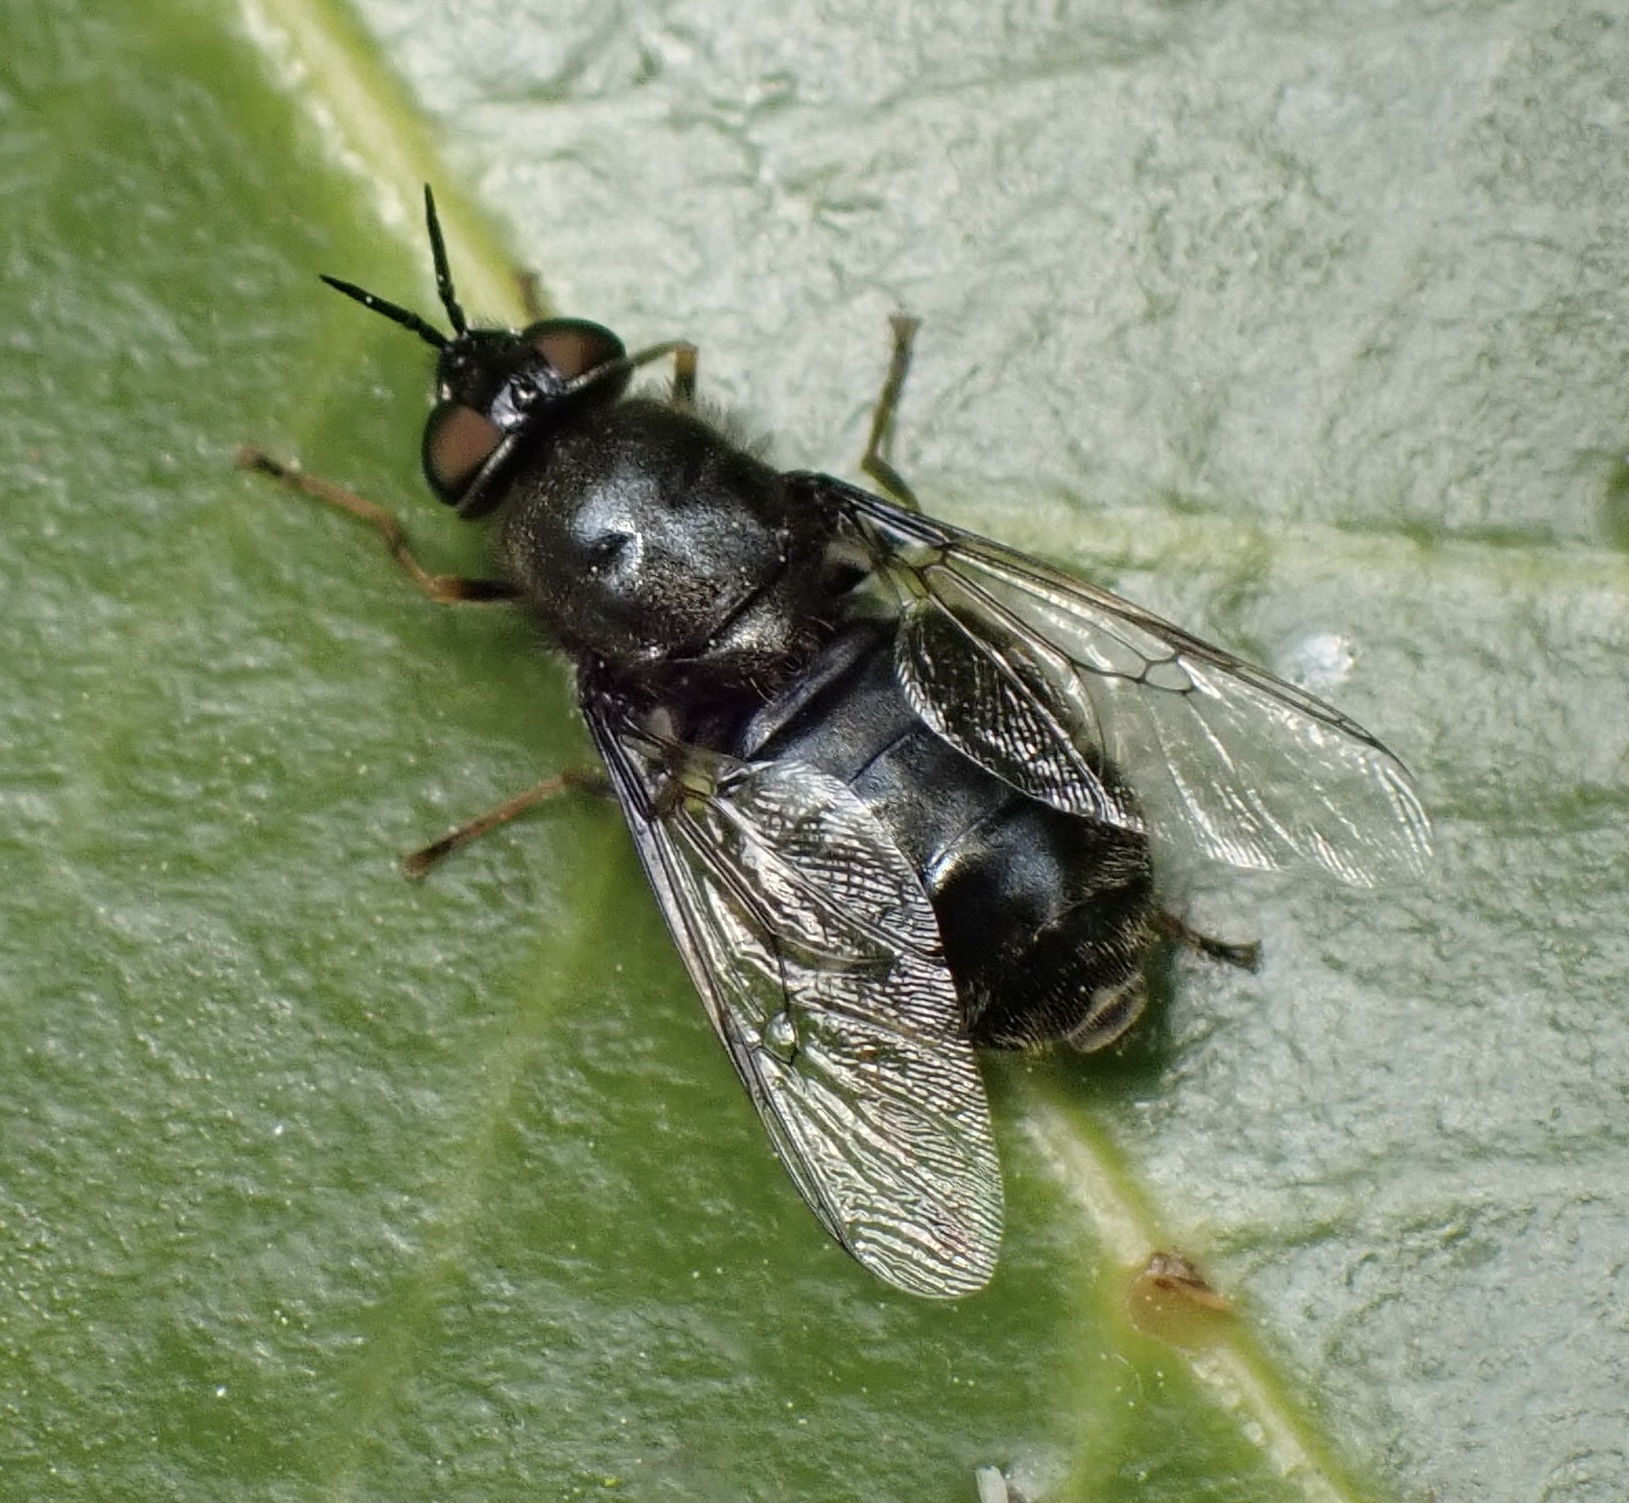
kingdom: Animalia
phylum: Arthropoda
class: Insecta
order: Diptera
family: Stratiomyidae
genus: Odontomyia
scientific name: Odontomyia tigrina
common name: Black colonel
